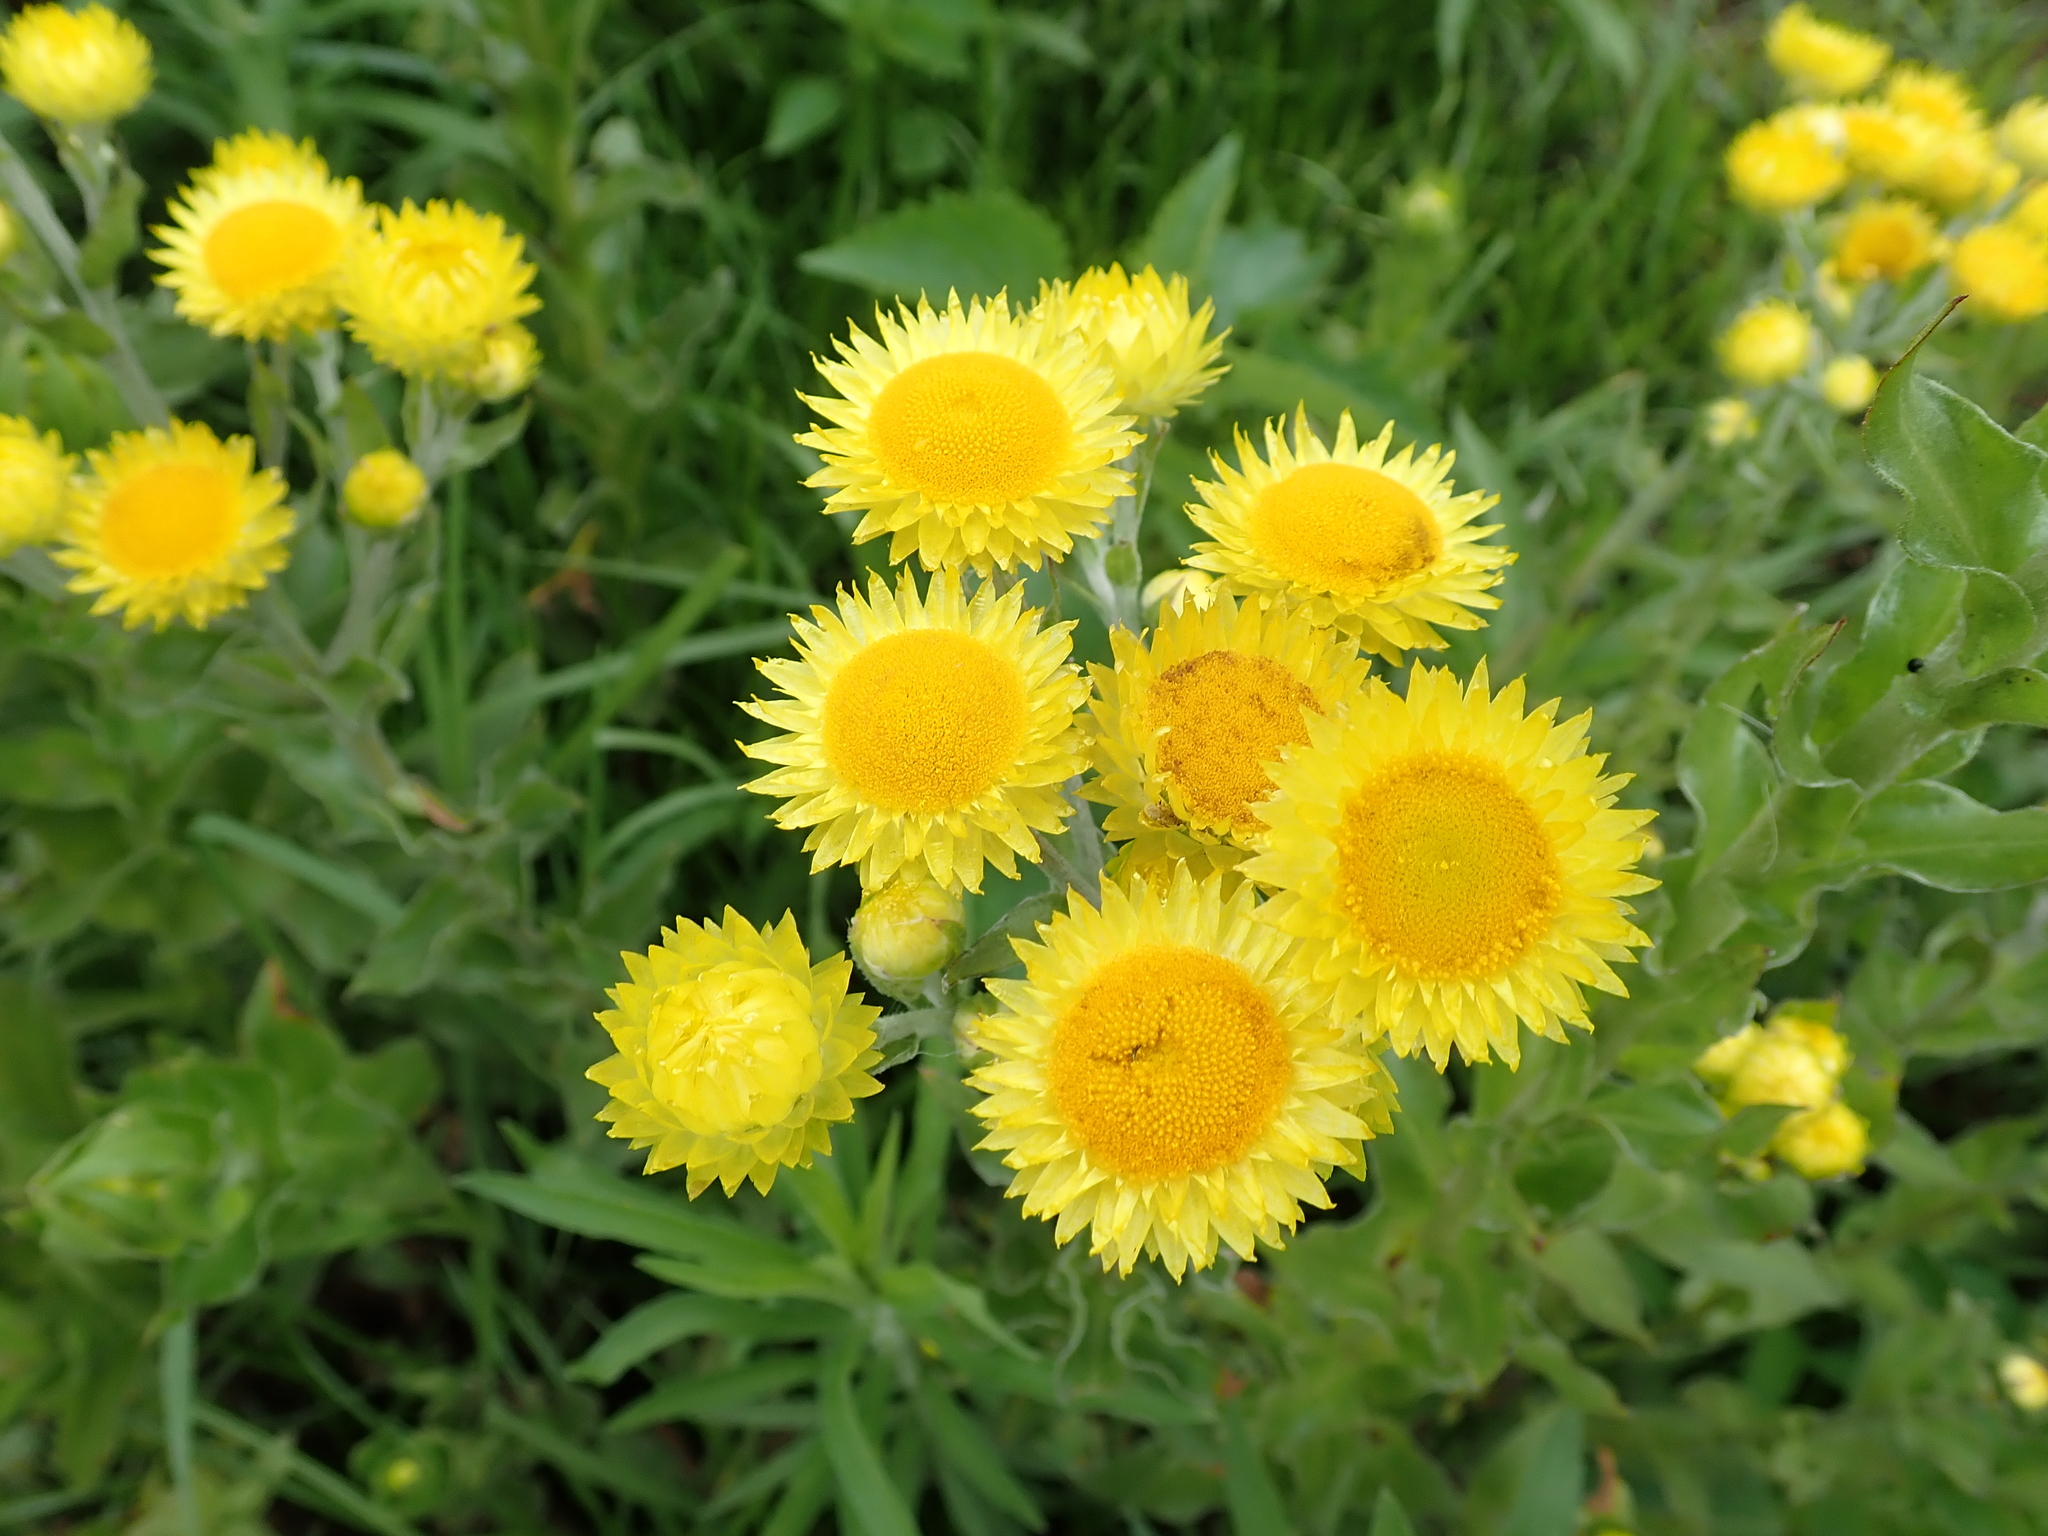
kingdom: Plantae
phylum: Tracheophyta
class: Magnoliopsida
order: Asterales
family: Asteraceae
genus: Helichrysum
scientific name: Helichrysum ruderale
